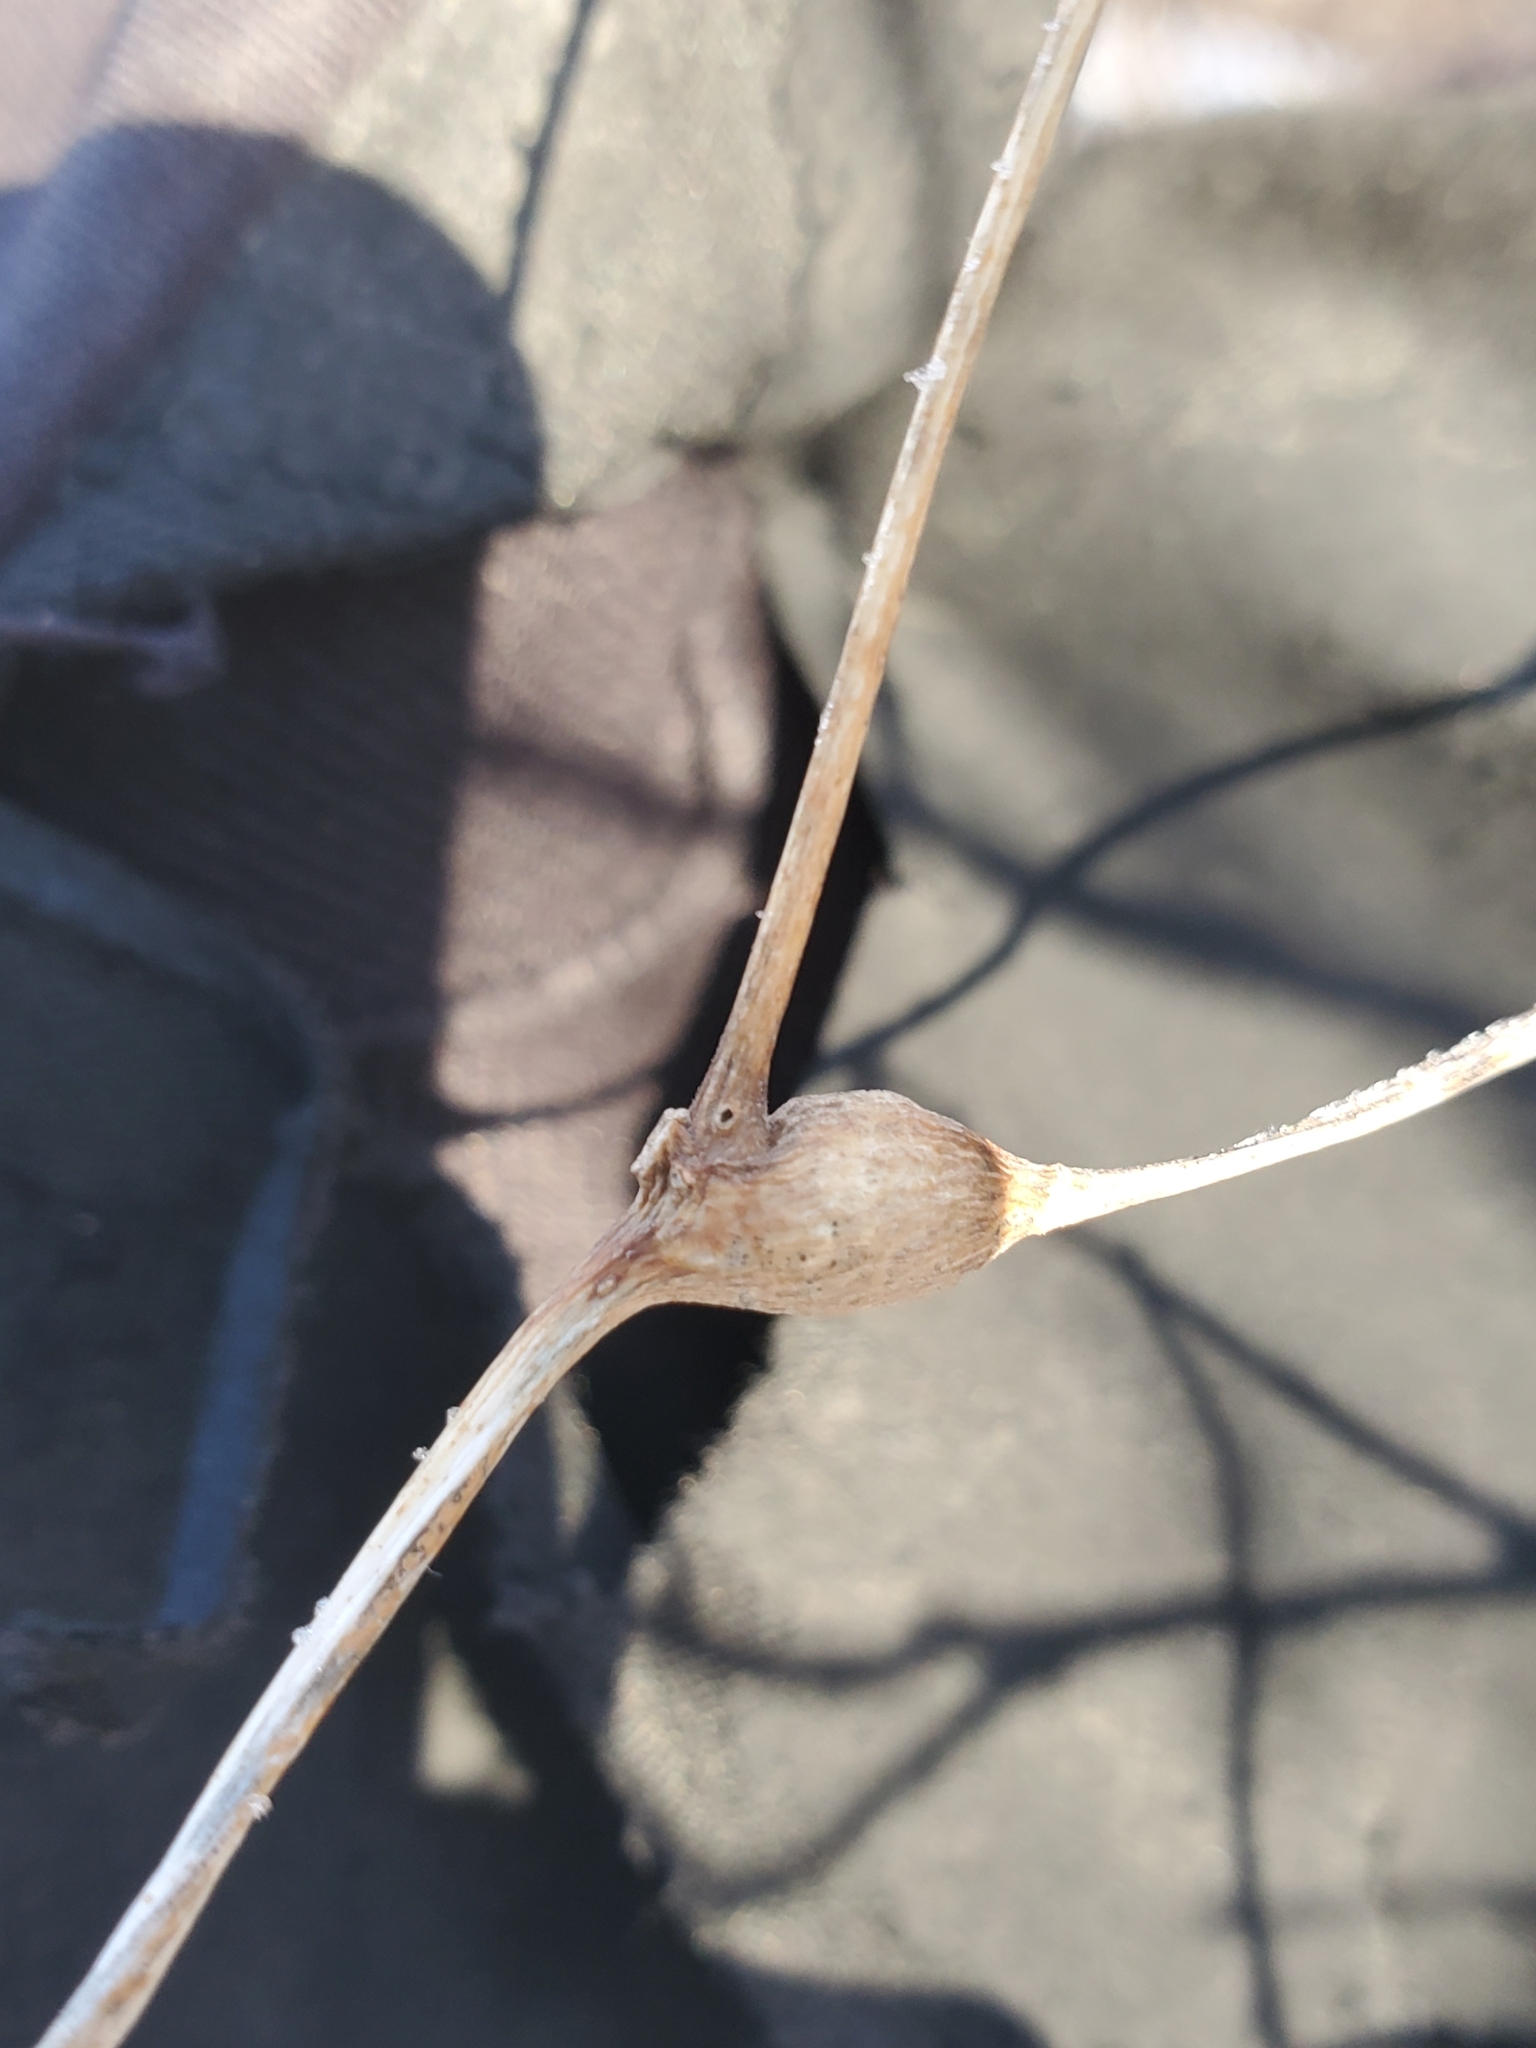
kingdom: Animalia
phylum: Arthropoda
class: Insecta
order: Diptera
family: Cecidomyiidae
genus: Neolasioptera
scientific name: Neolasioptera convolvuli
